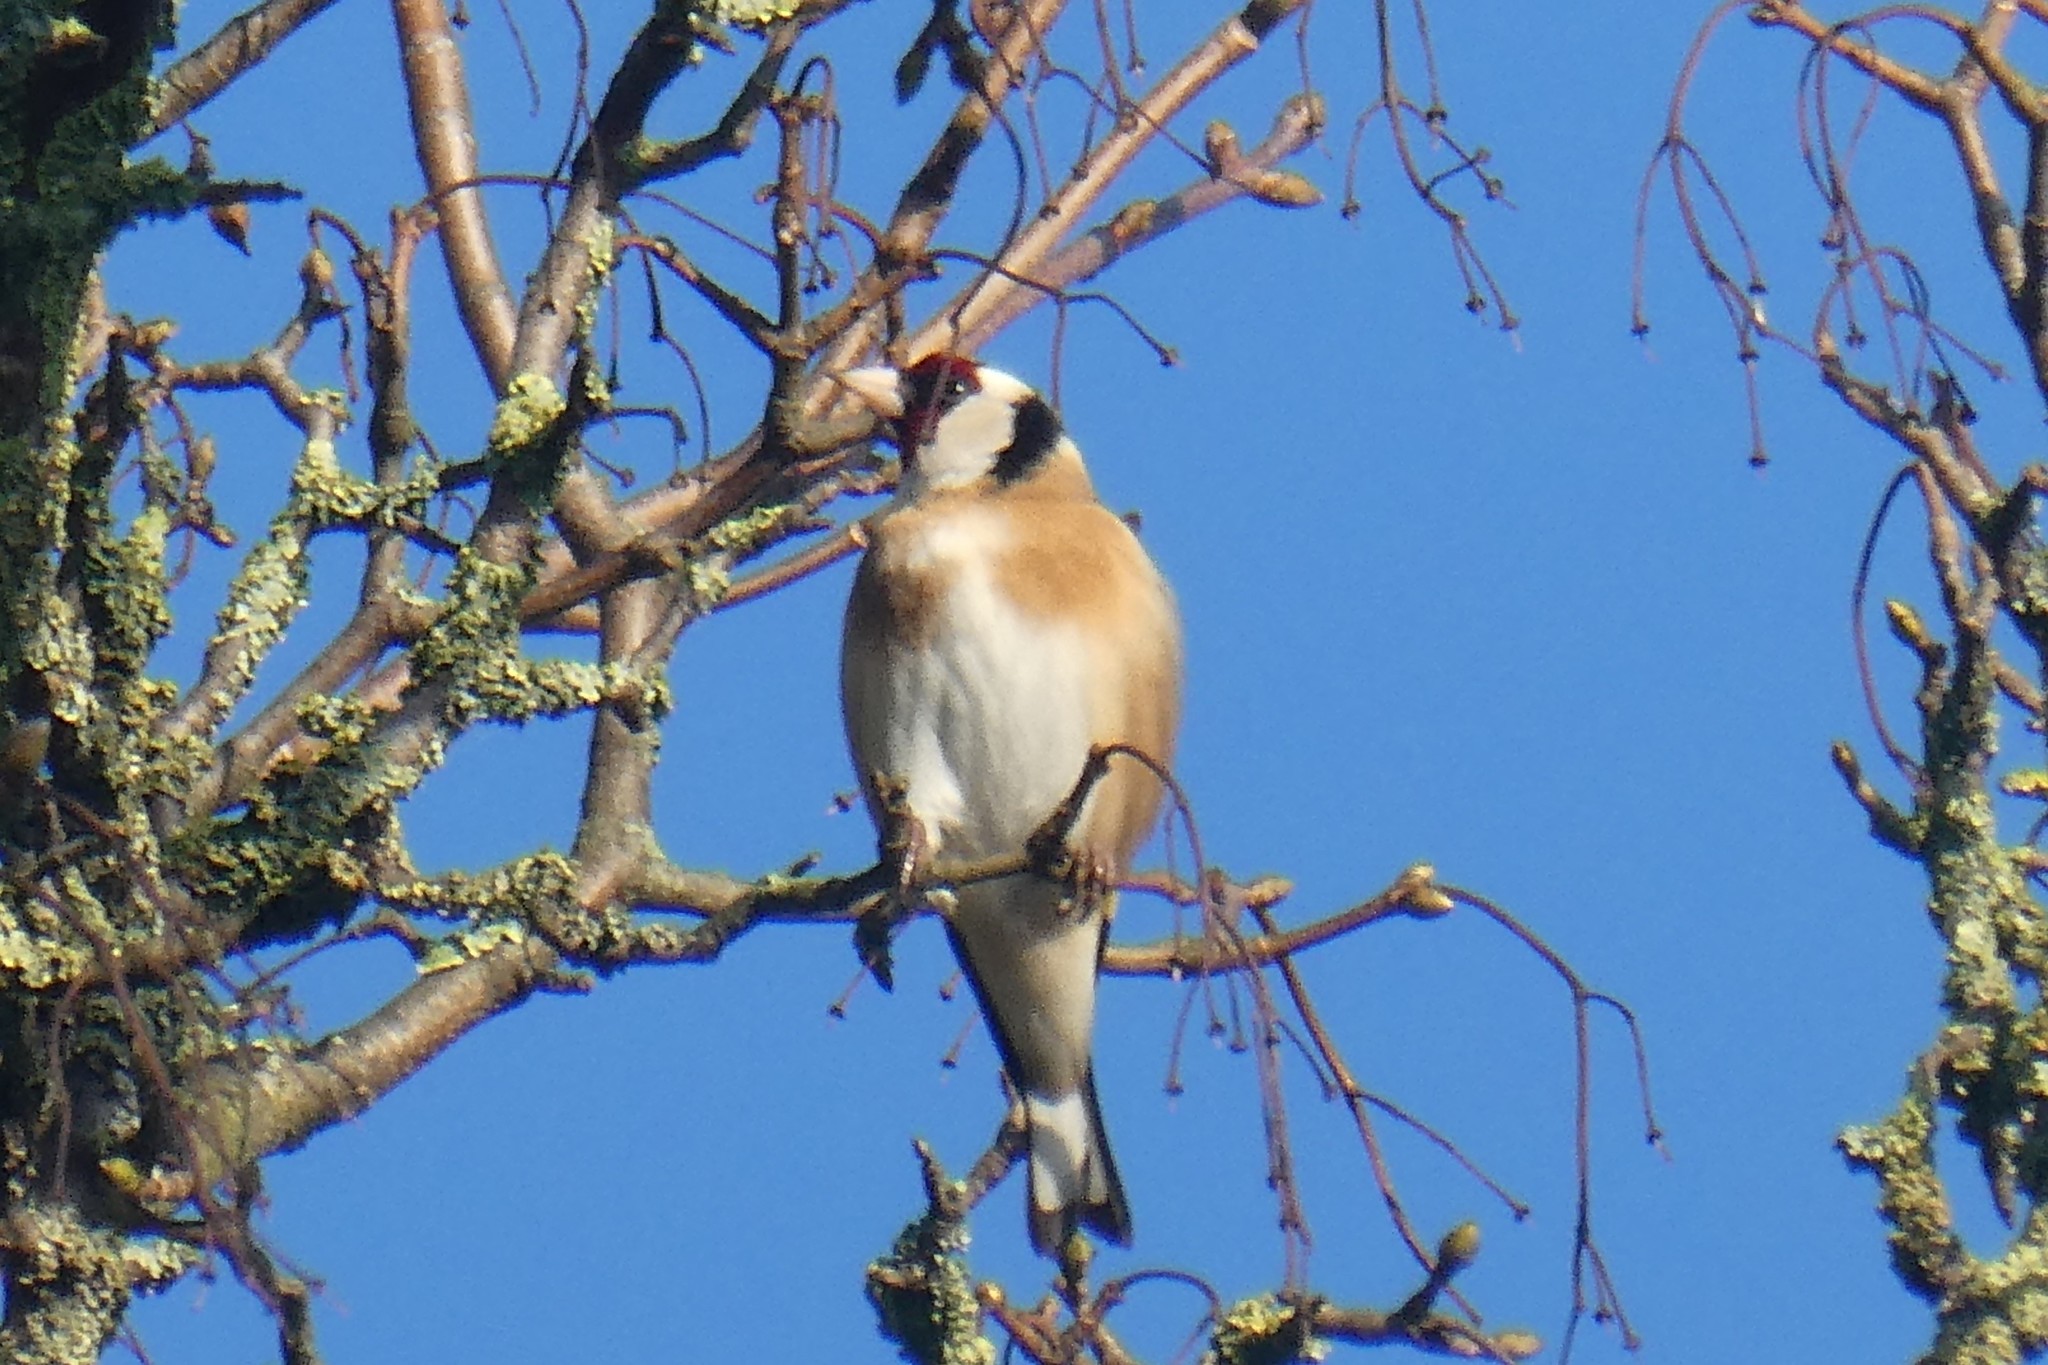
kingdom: Animalia
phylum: Chordata
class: Aves
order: Passeriformes
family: Fringillidae
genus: Carduelis
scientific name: Carduelis carduelis
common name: European goldfinch
